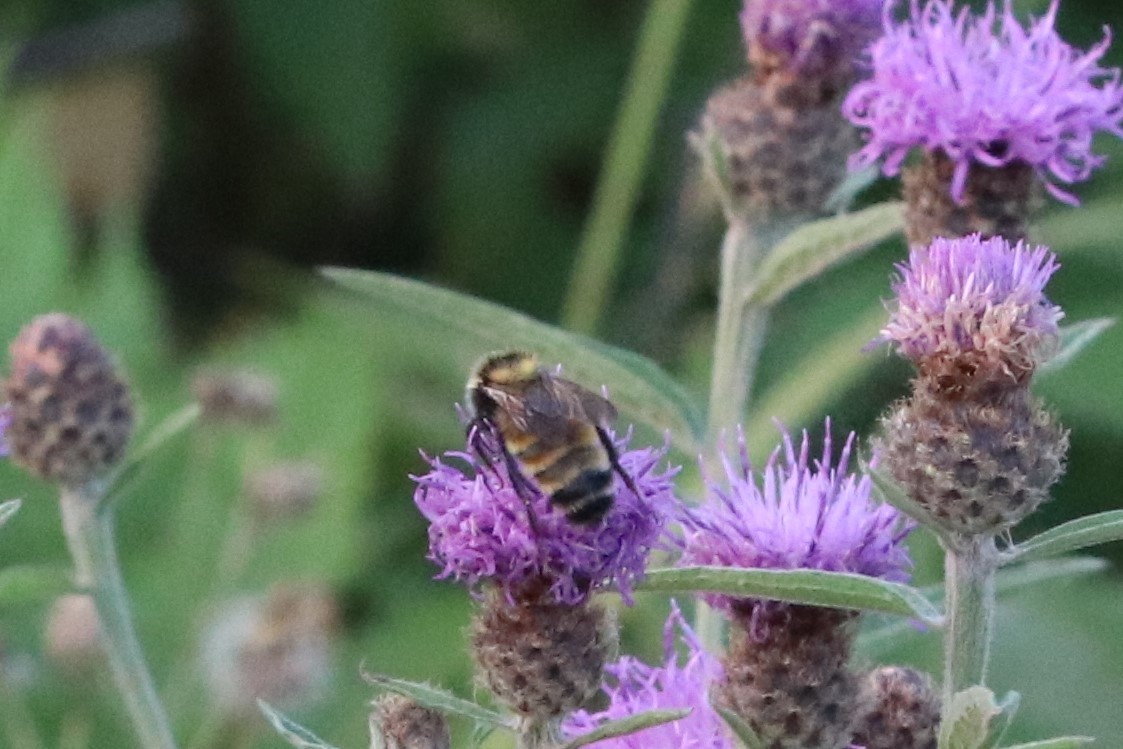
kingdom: Animalia
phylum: Arthropoda
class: Insecta
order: Hymenoptera
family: Apidae
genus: Bombus
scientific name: Bombus borealis
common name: Northern amber bumble bee
